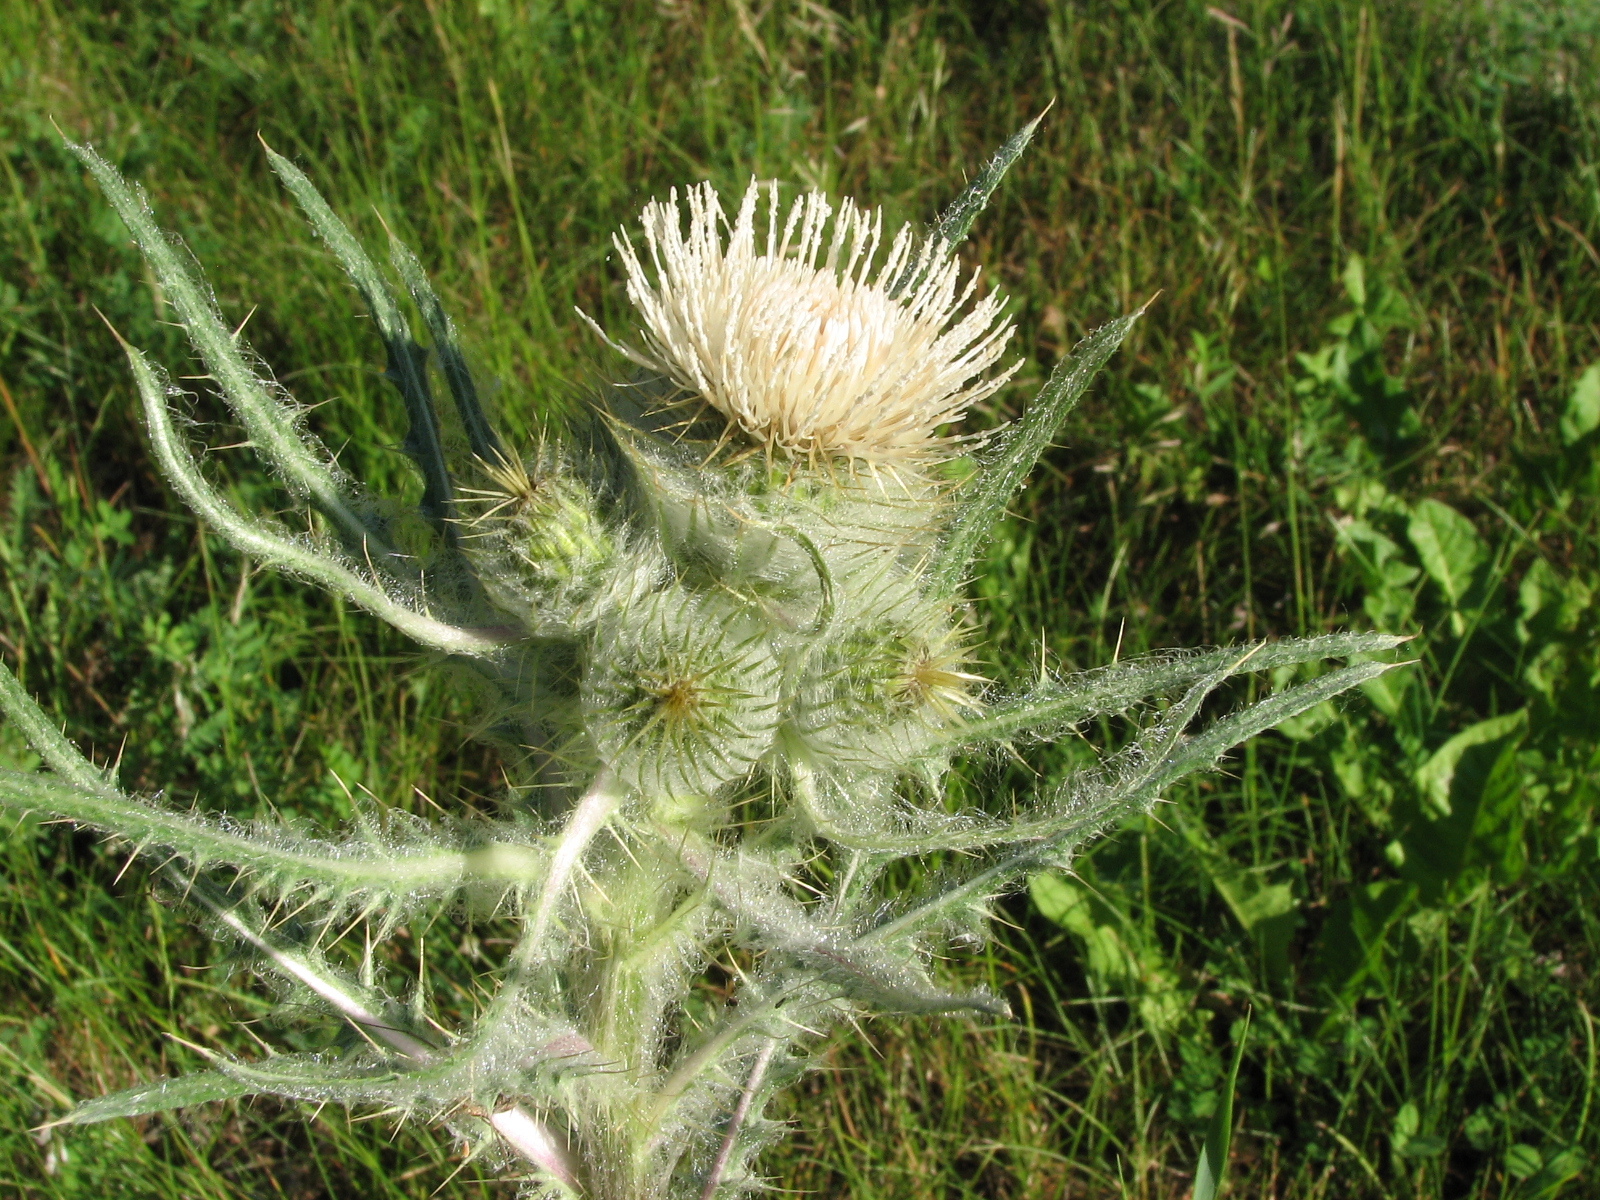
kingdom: Plantae
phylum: Tracheophyta
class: Magnoliopsida
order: Asterales
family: Asteraceae
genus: Cirsium
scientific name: Cirsium hookerianum
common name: Hooker's thistle
